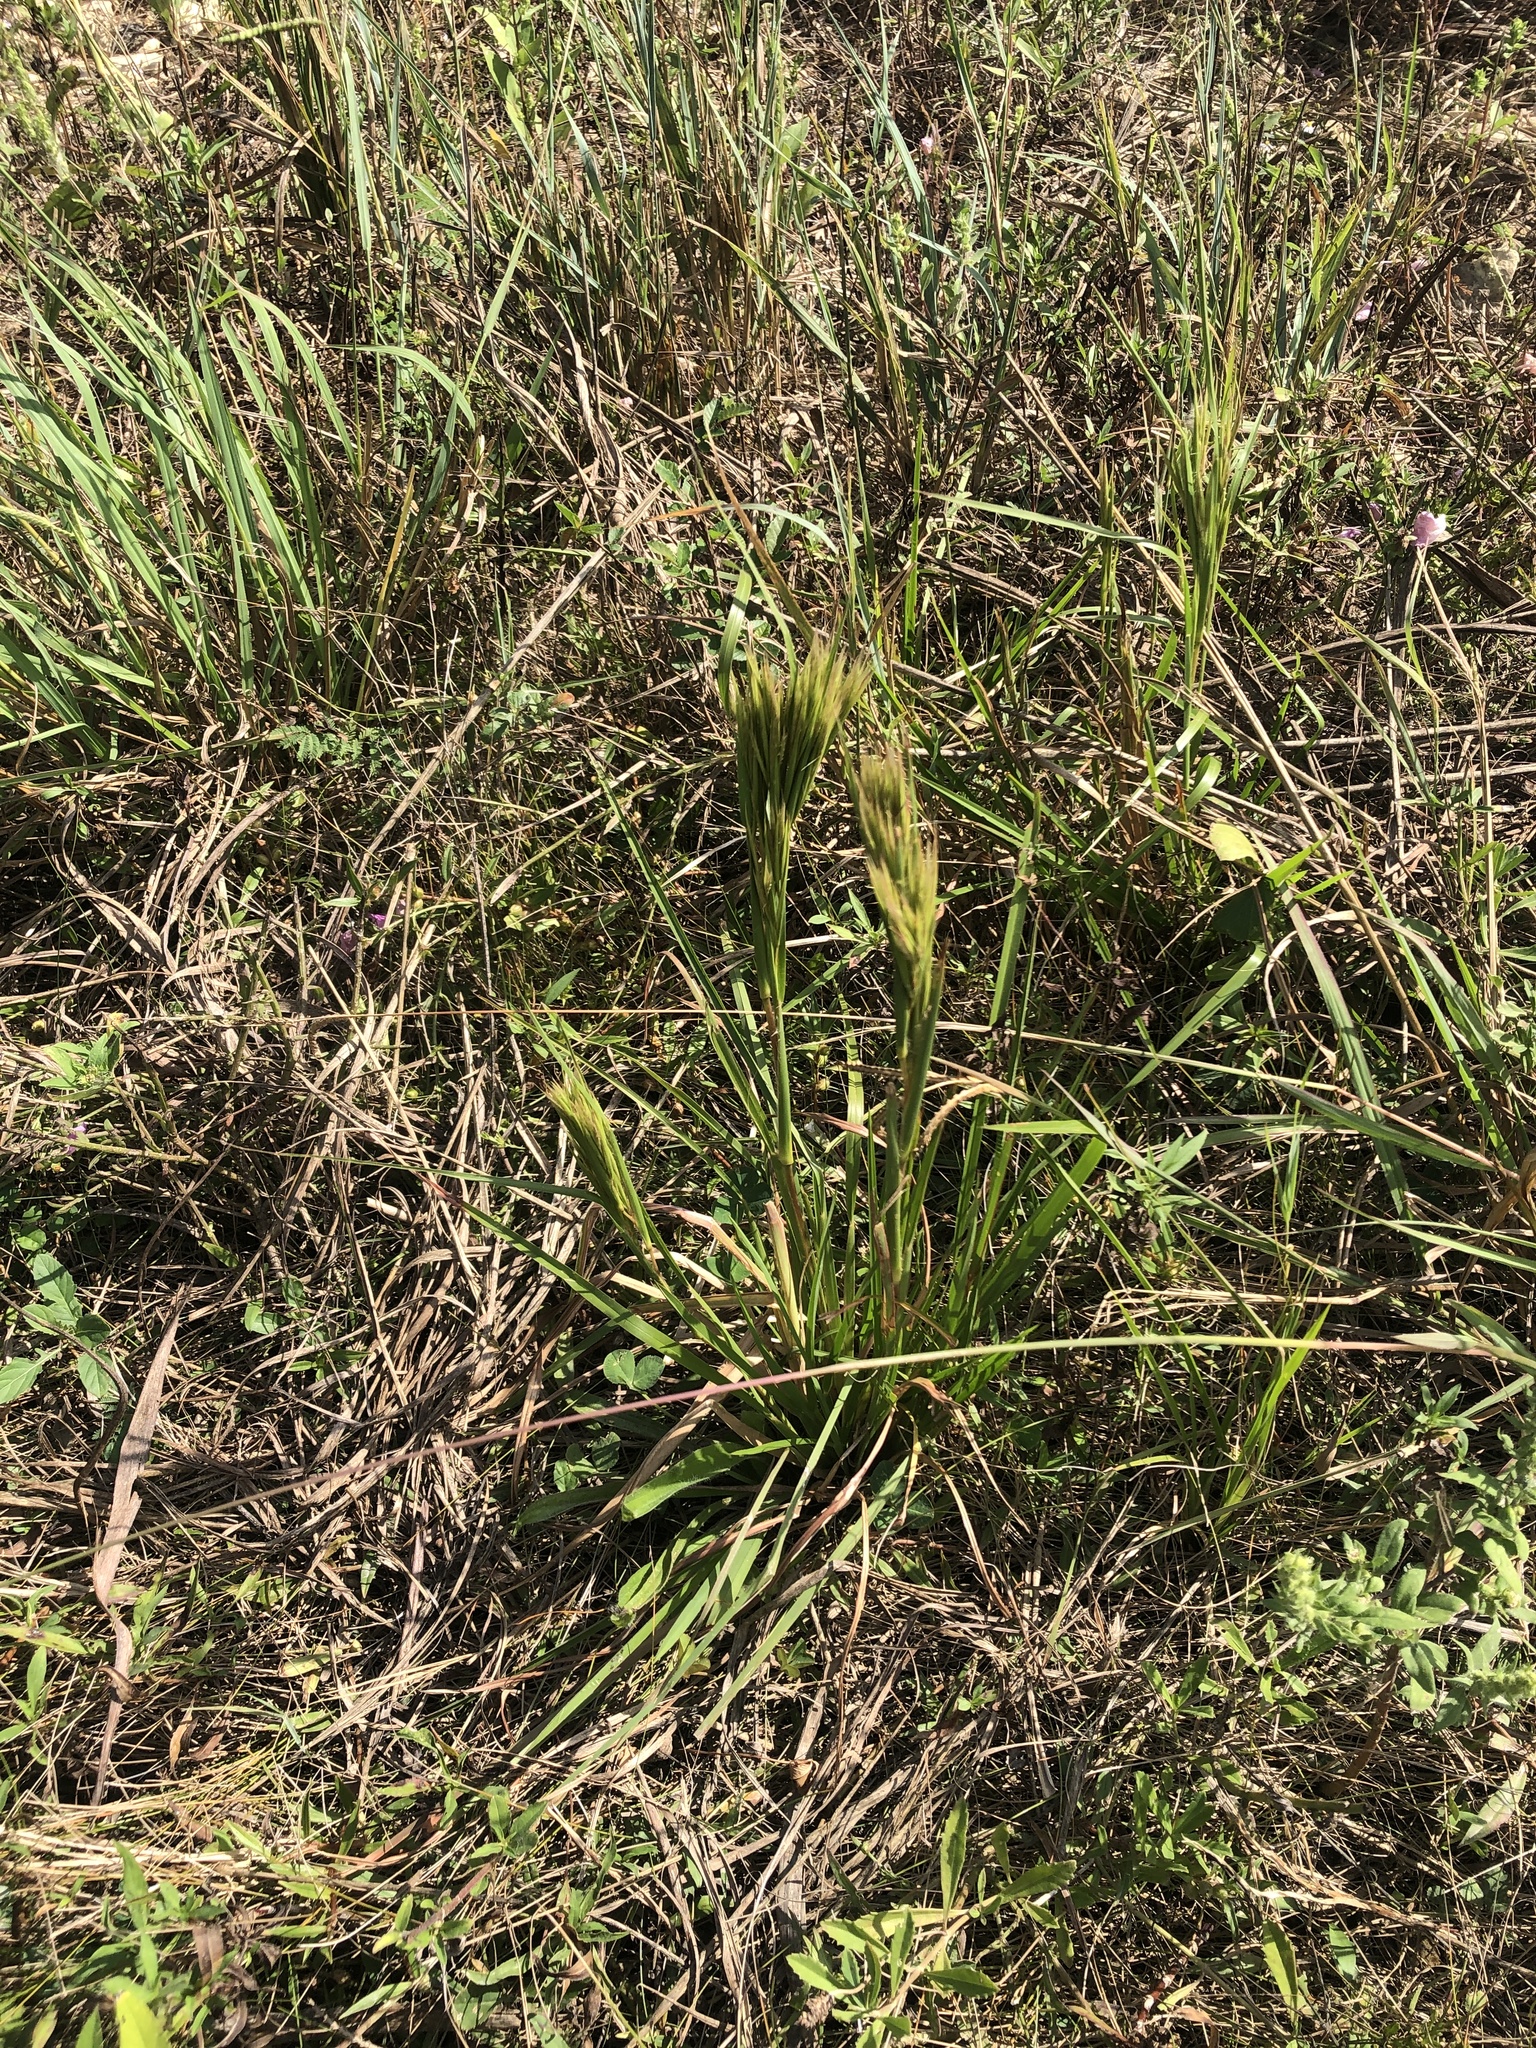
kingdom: Plantae
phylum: Tracheophyta
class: Liliopsida
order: Poales
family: Poaceae
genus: Andropogon
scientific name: Andropogon tenuispatheus
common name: Bushy bluestem
